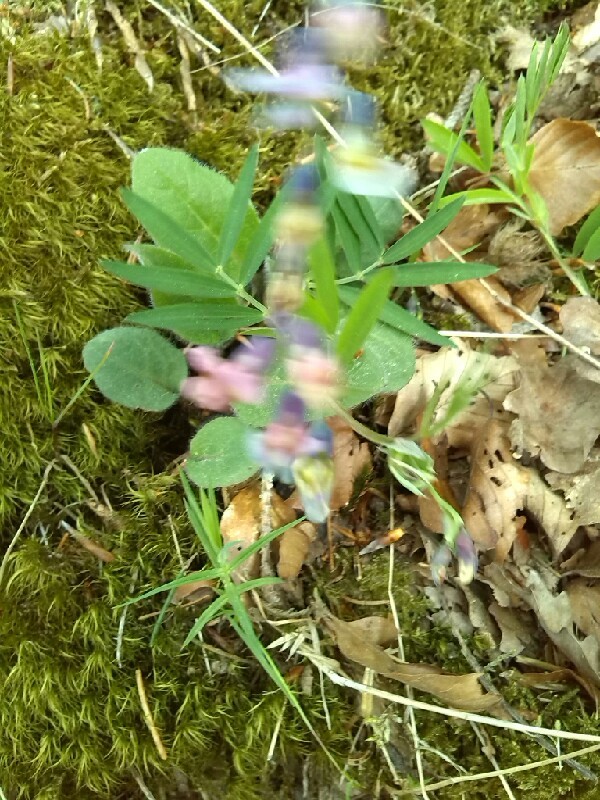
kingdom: Plantae
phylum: Tracheophyta
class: Magnoliopsida
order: Fabales
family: Fabaceae
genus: Lathyrus
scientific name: Lathyrus linifolius
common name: Bitter-vetch
